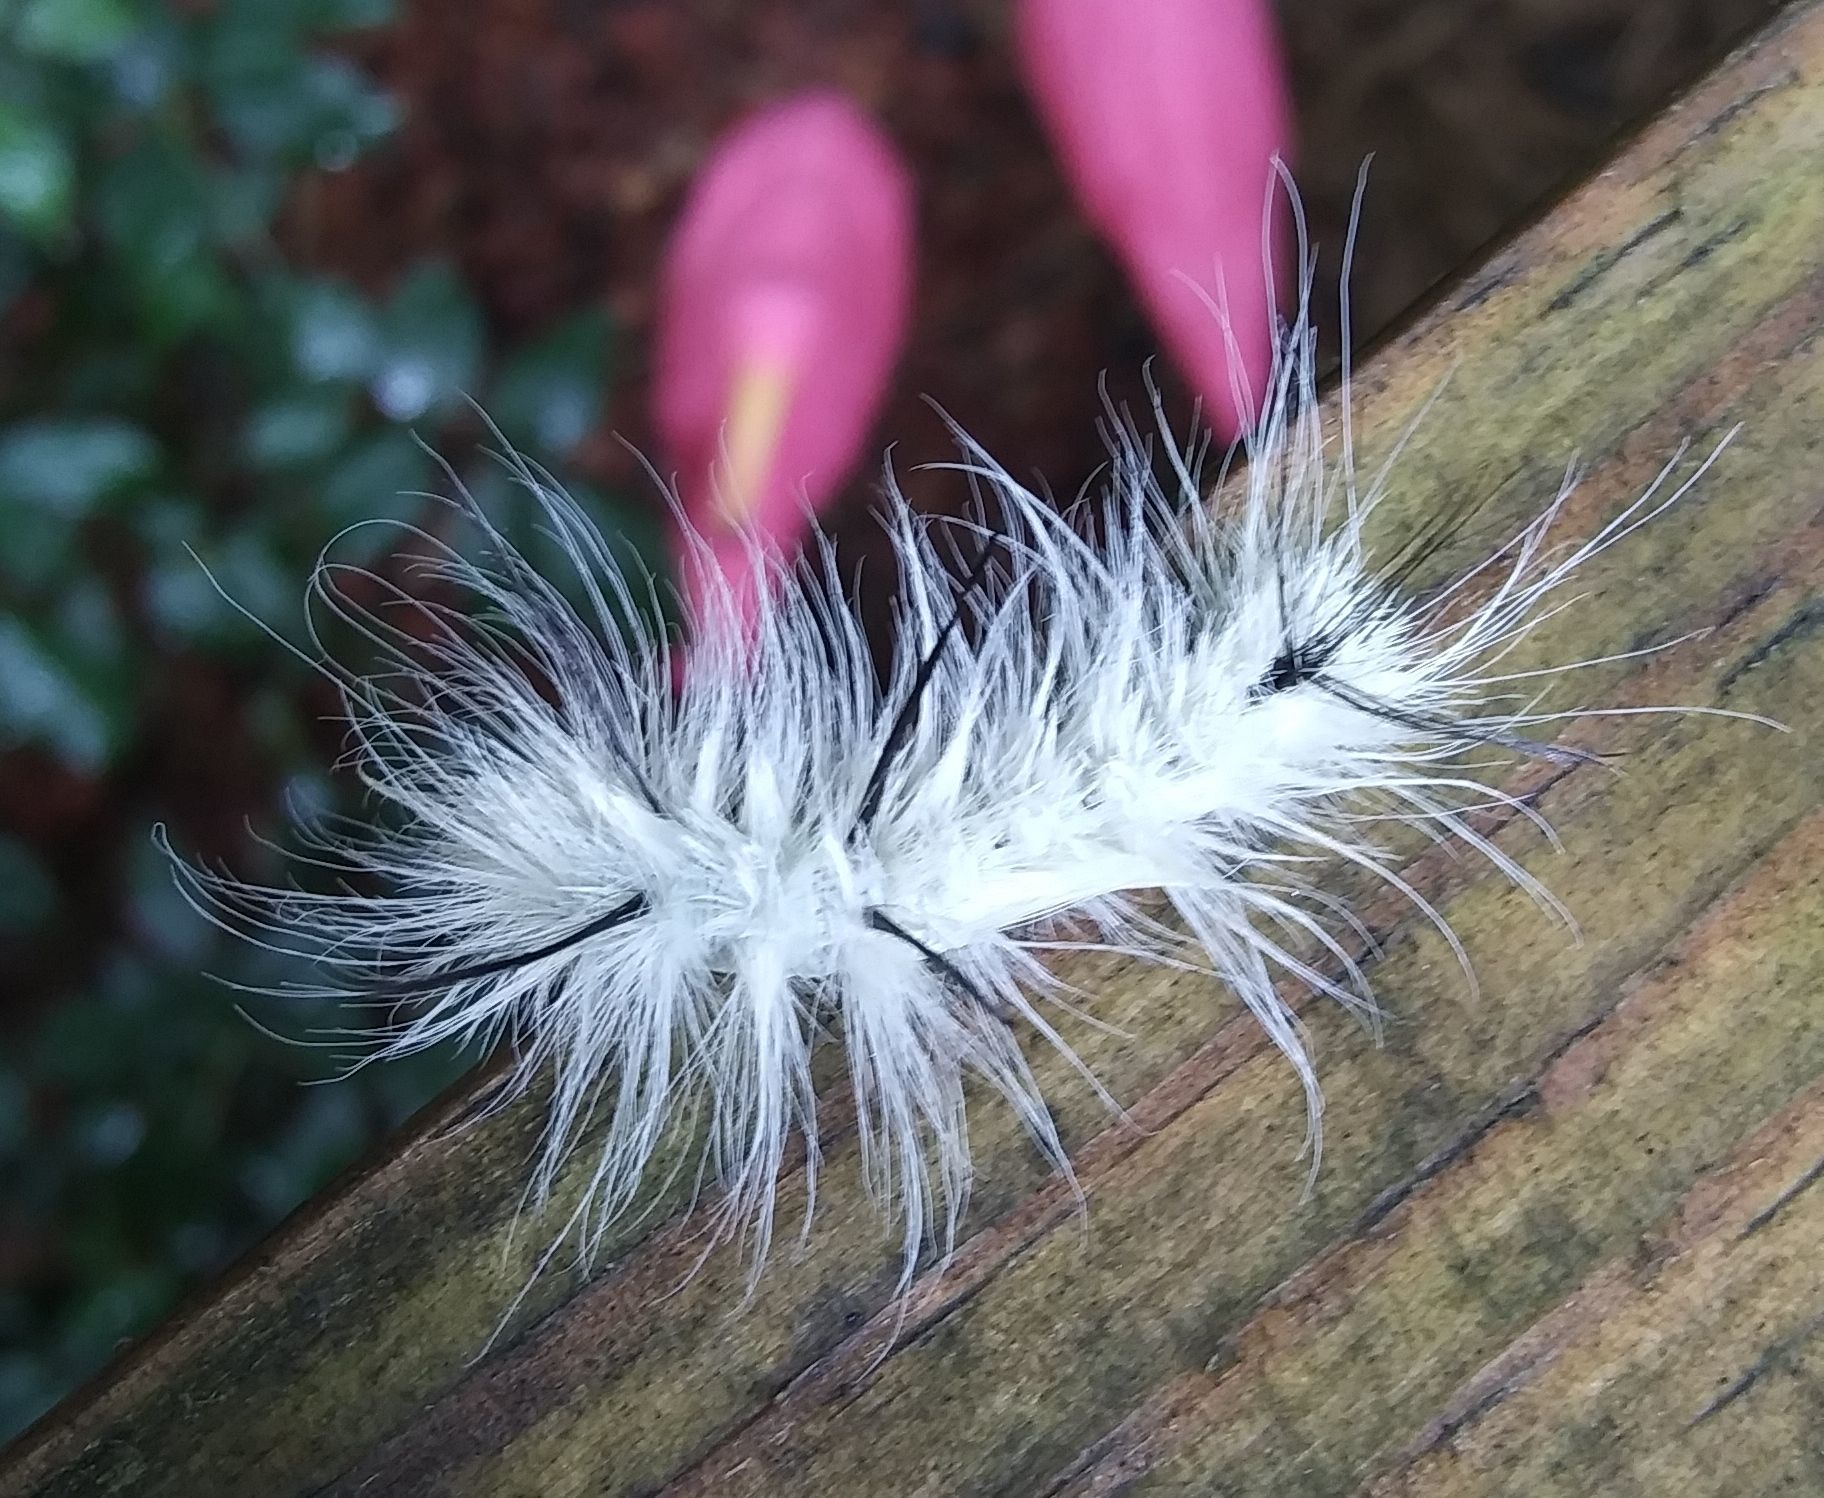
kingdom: Animalia
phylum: Arthropoda
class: Insecta
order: Lepidoptera
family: Noctuidae
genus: Acronicta
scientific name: Acronicta americana
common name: American dagger
